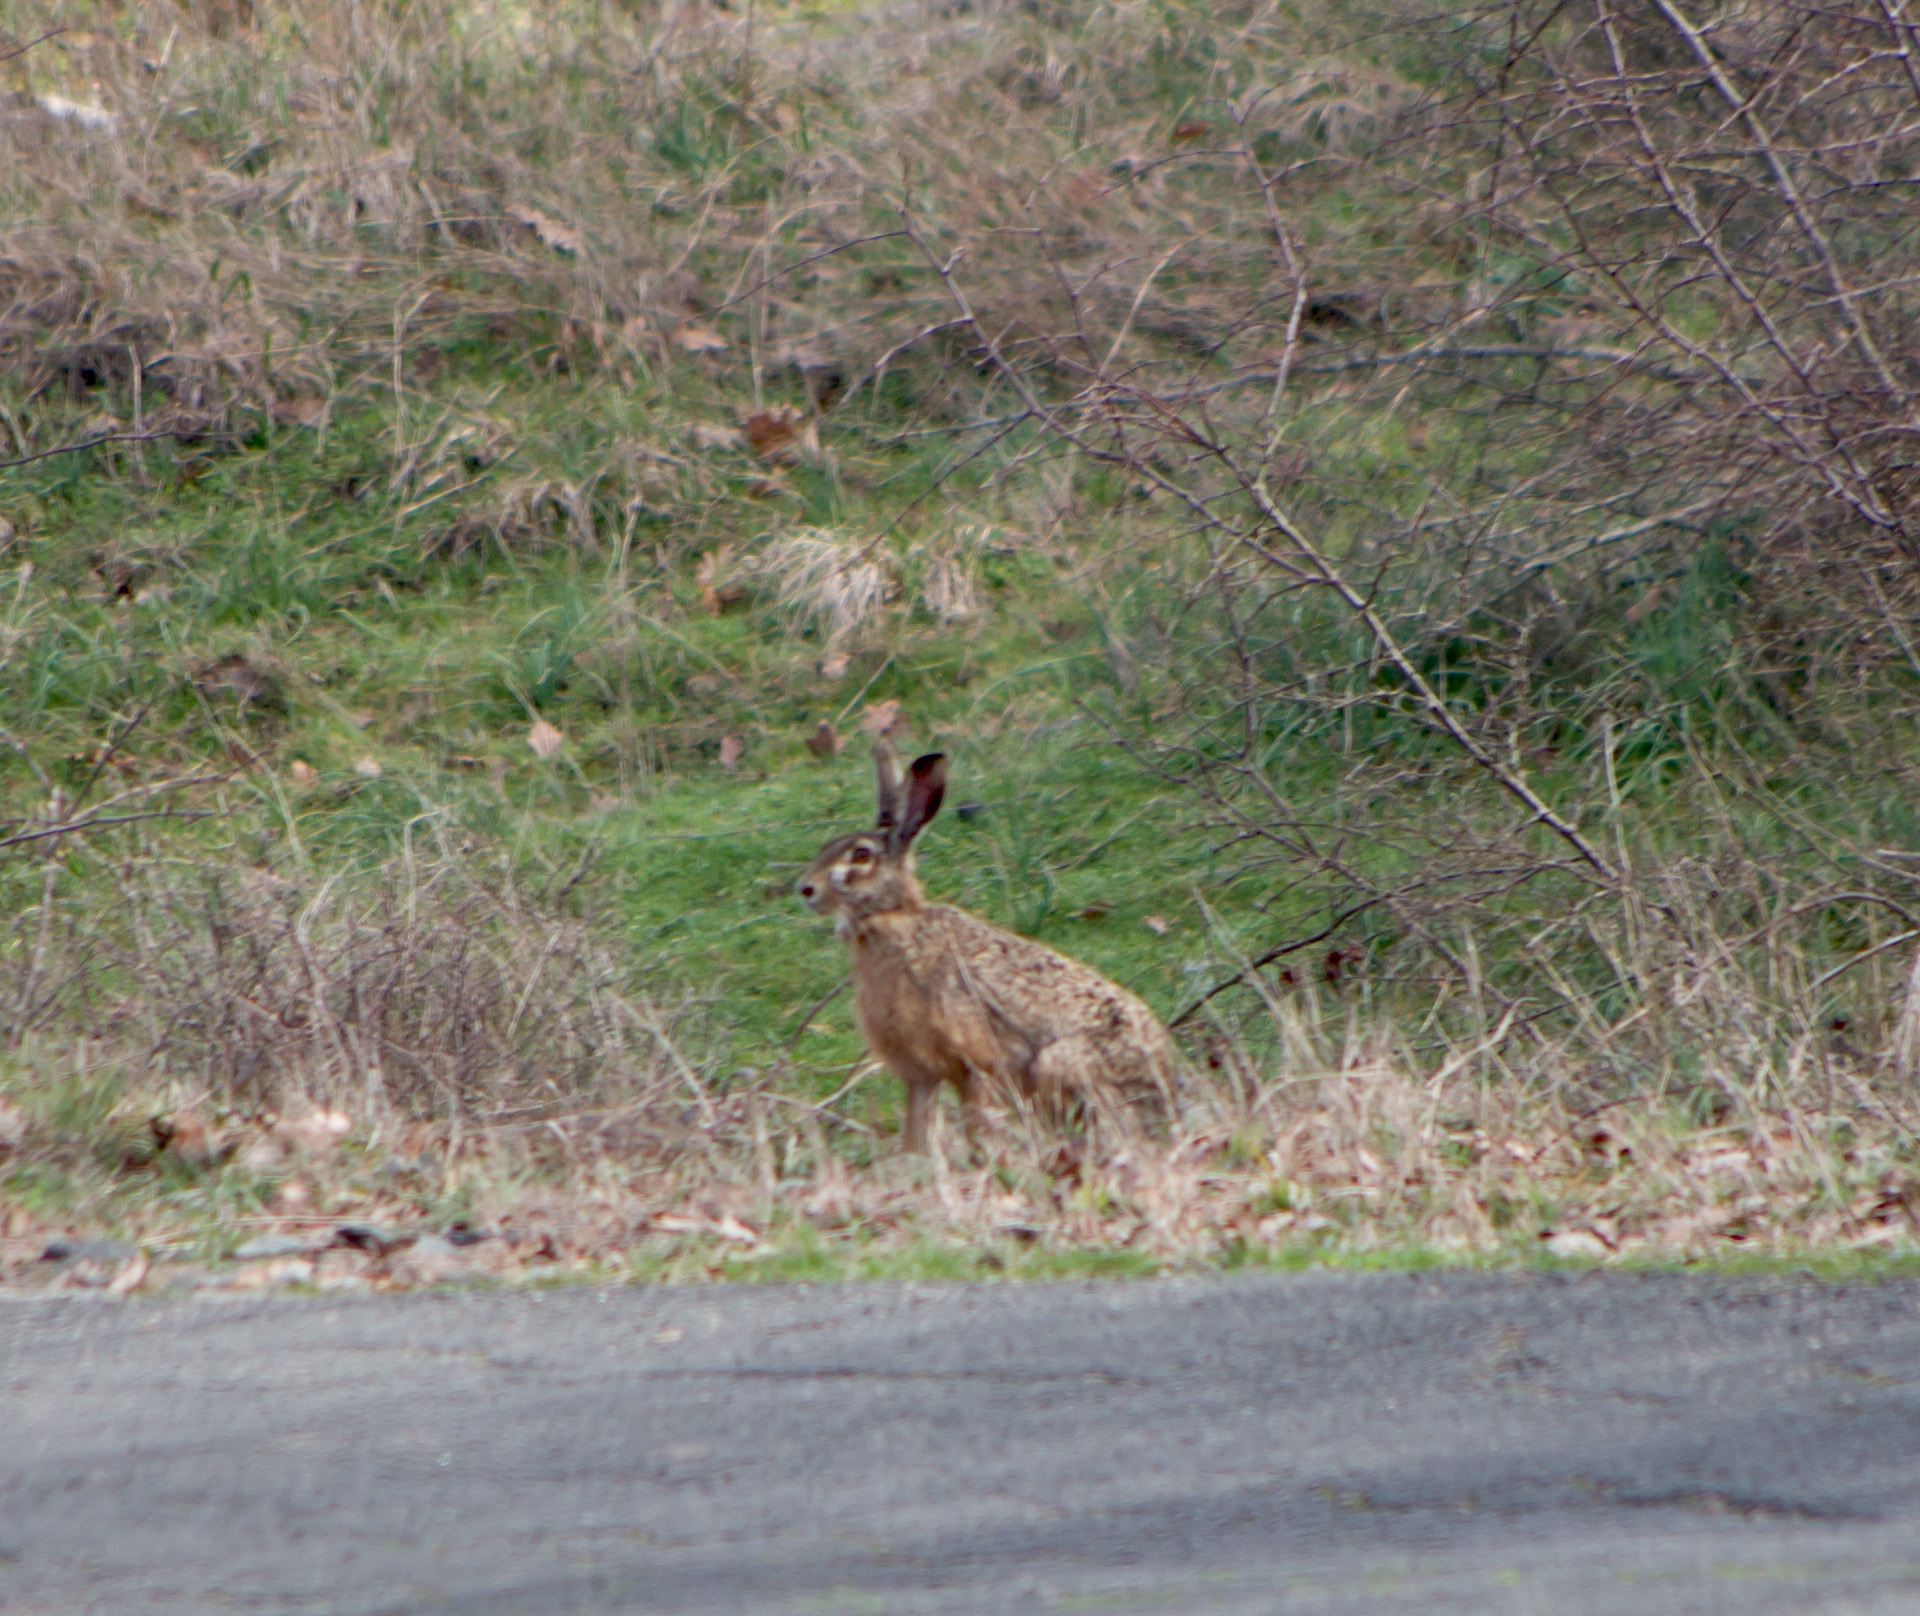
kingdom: Animalia
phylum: Chordata
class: Mammalia
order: Lagomorpha
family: Leporidae
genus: Lepus
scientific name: Lepus europaeus
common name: European hare
